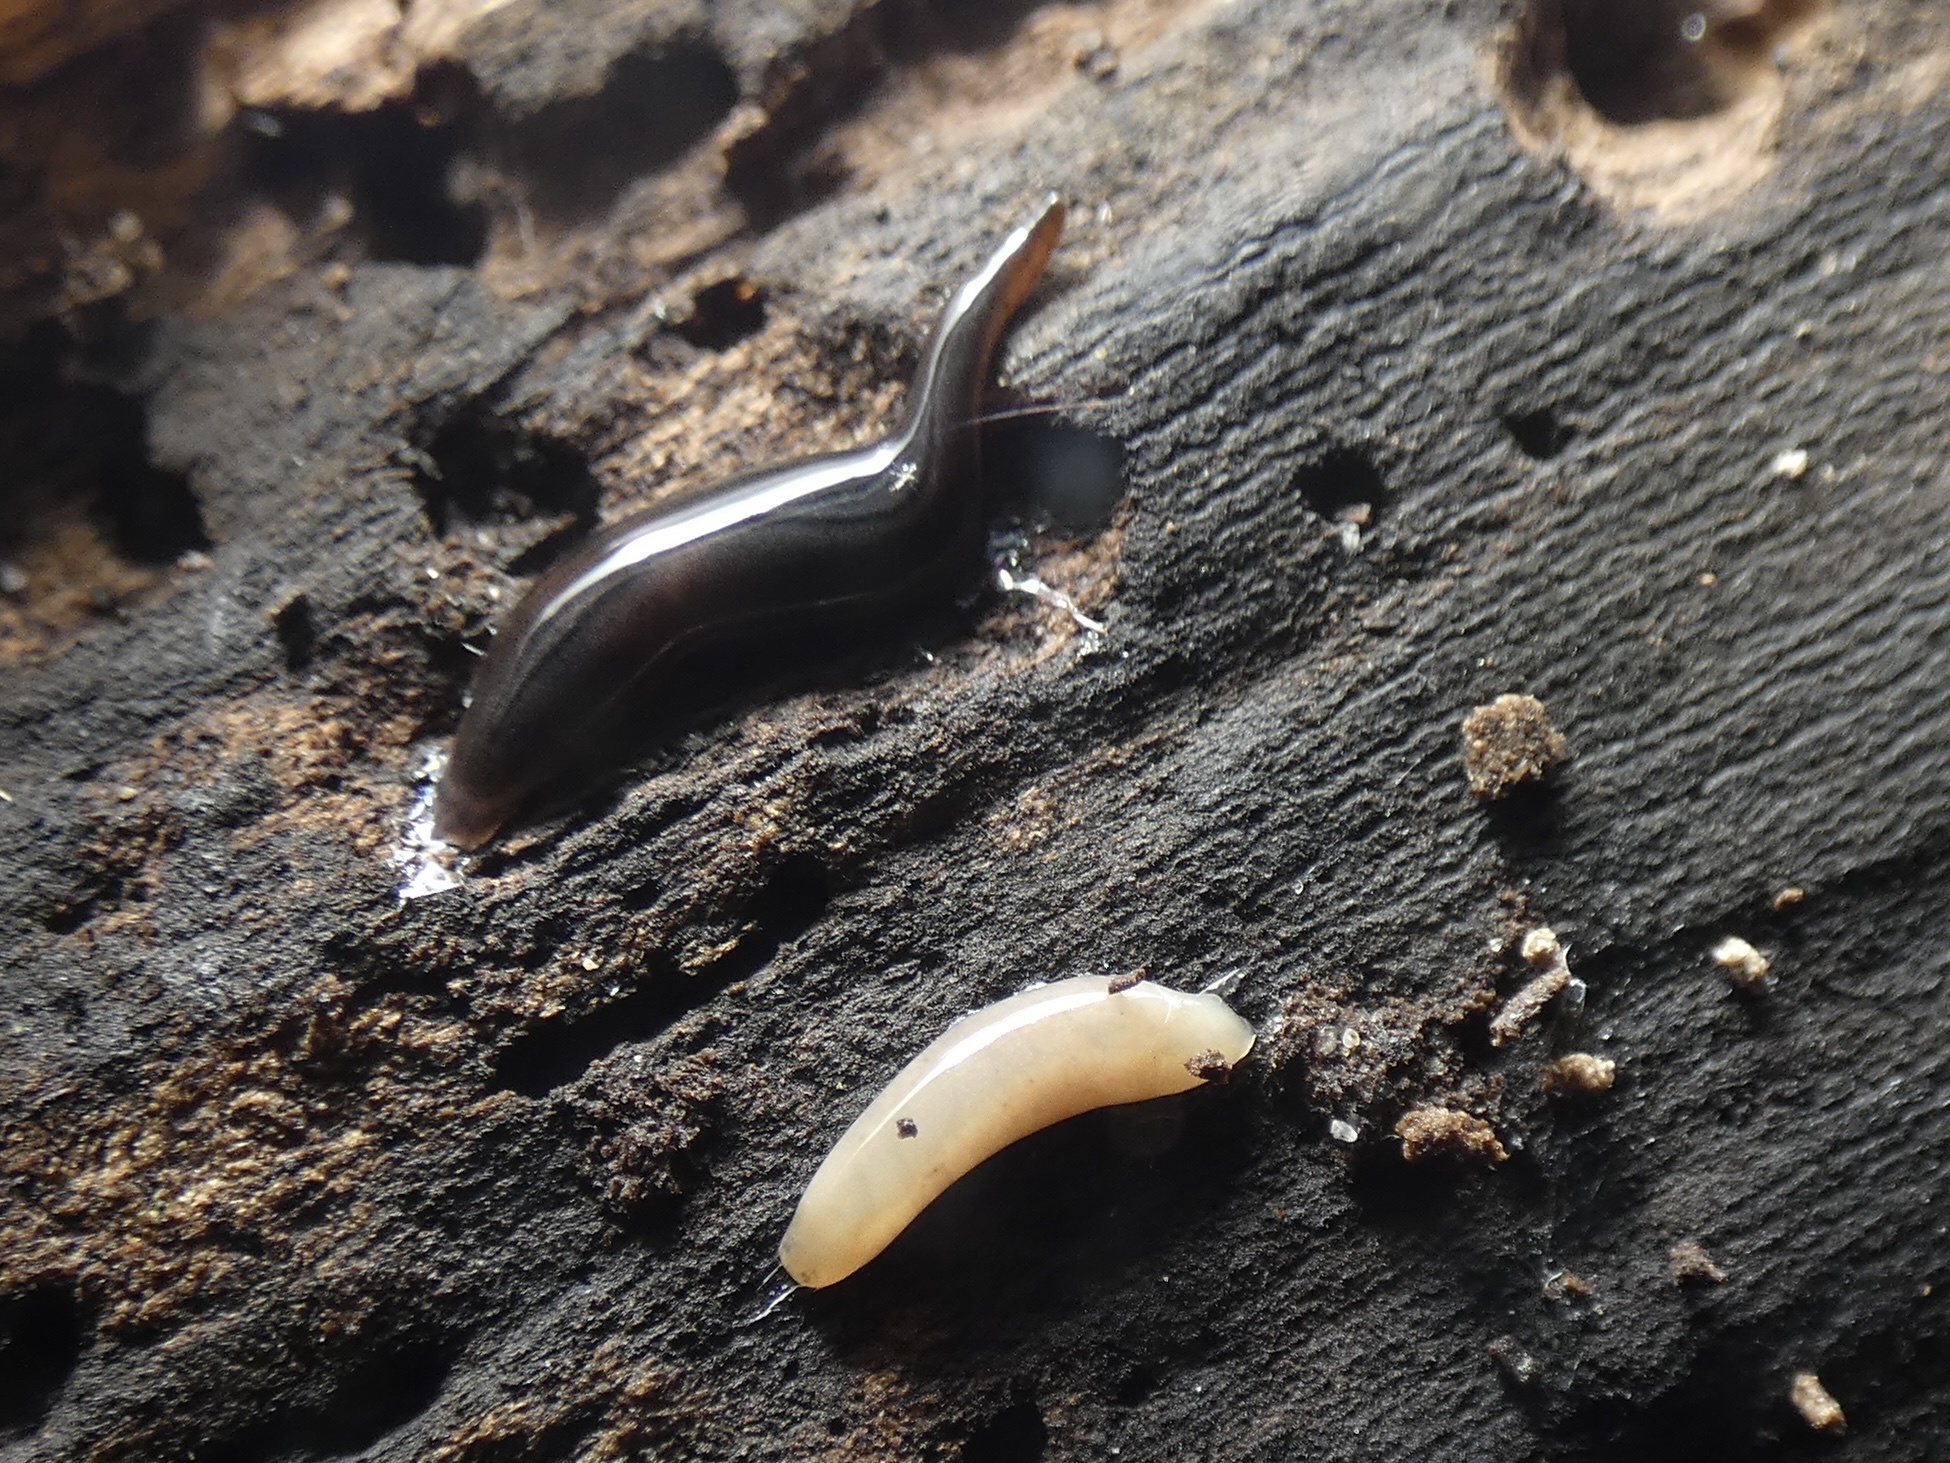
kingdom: Animalia
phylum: Platyhelminthes
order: Tricladida
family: Geoplanidae
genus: Parakontikia
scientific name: Parakontikia ventrolineata
